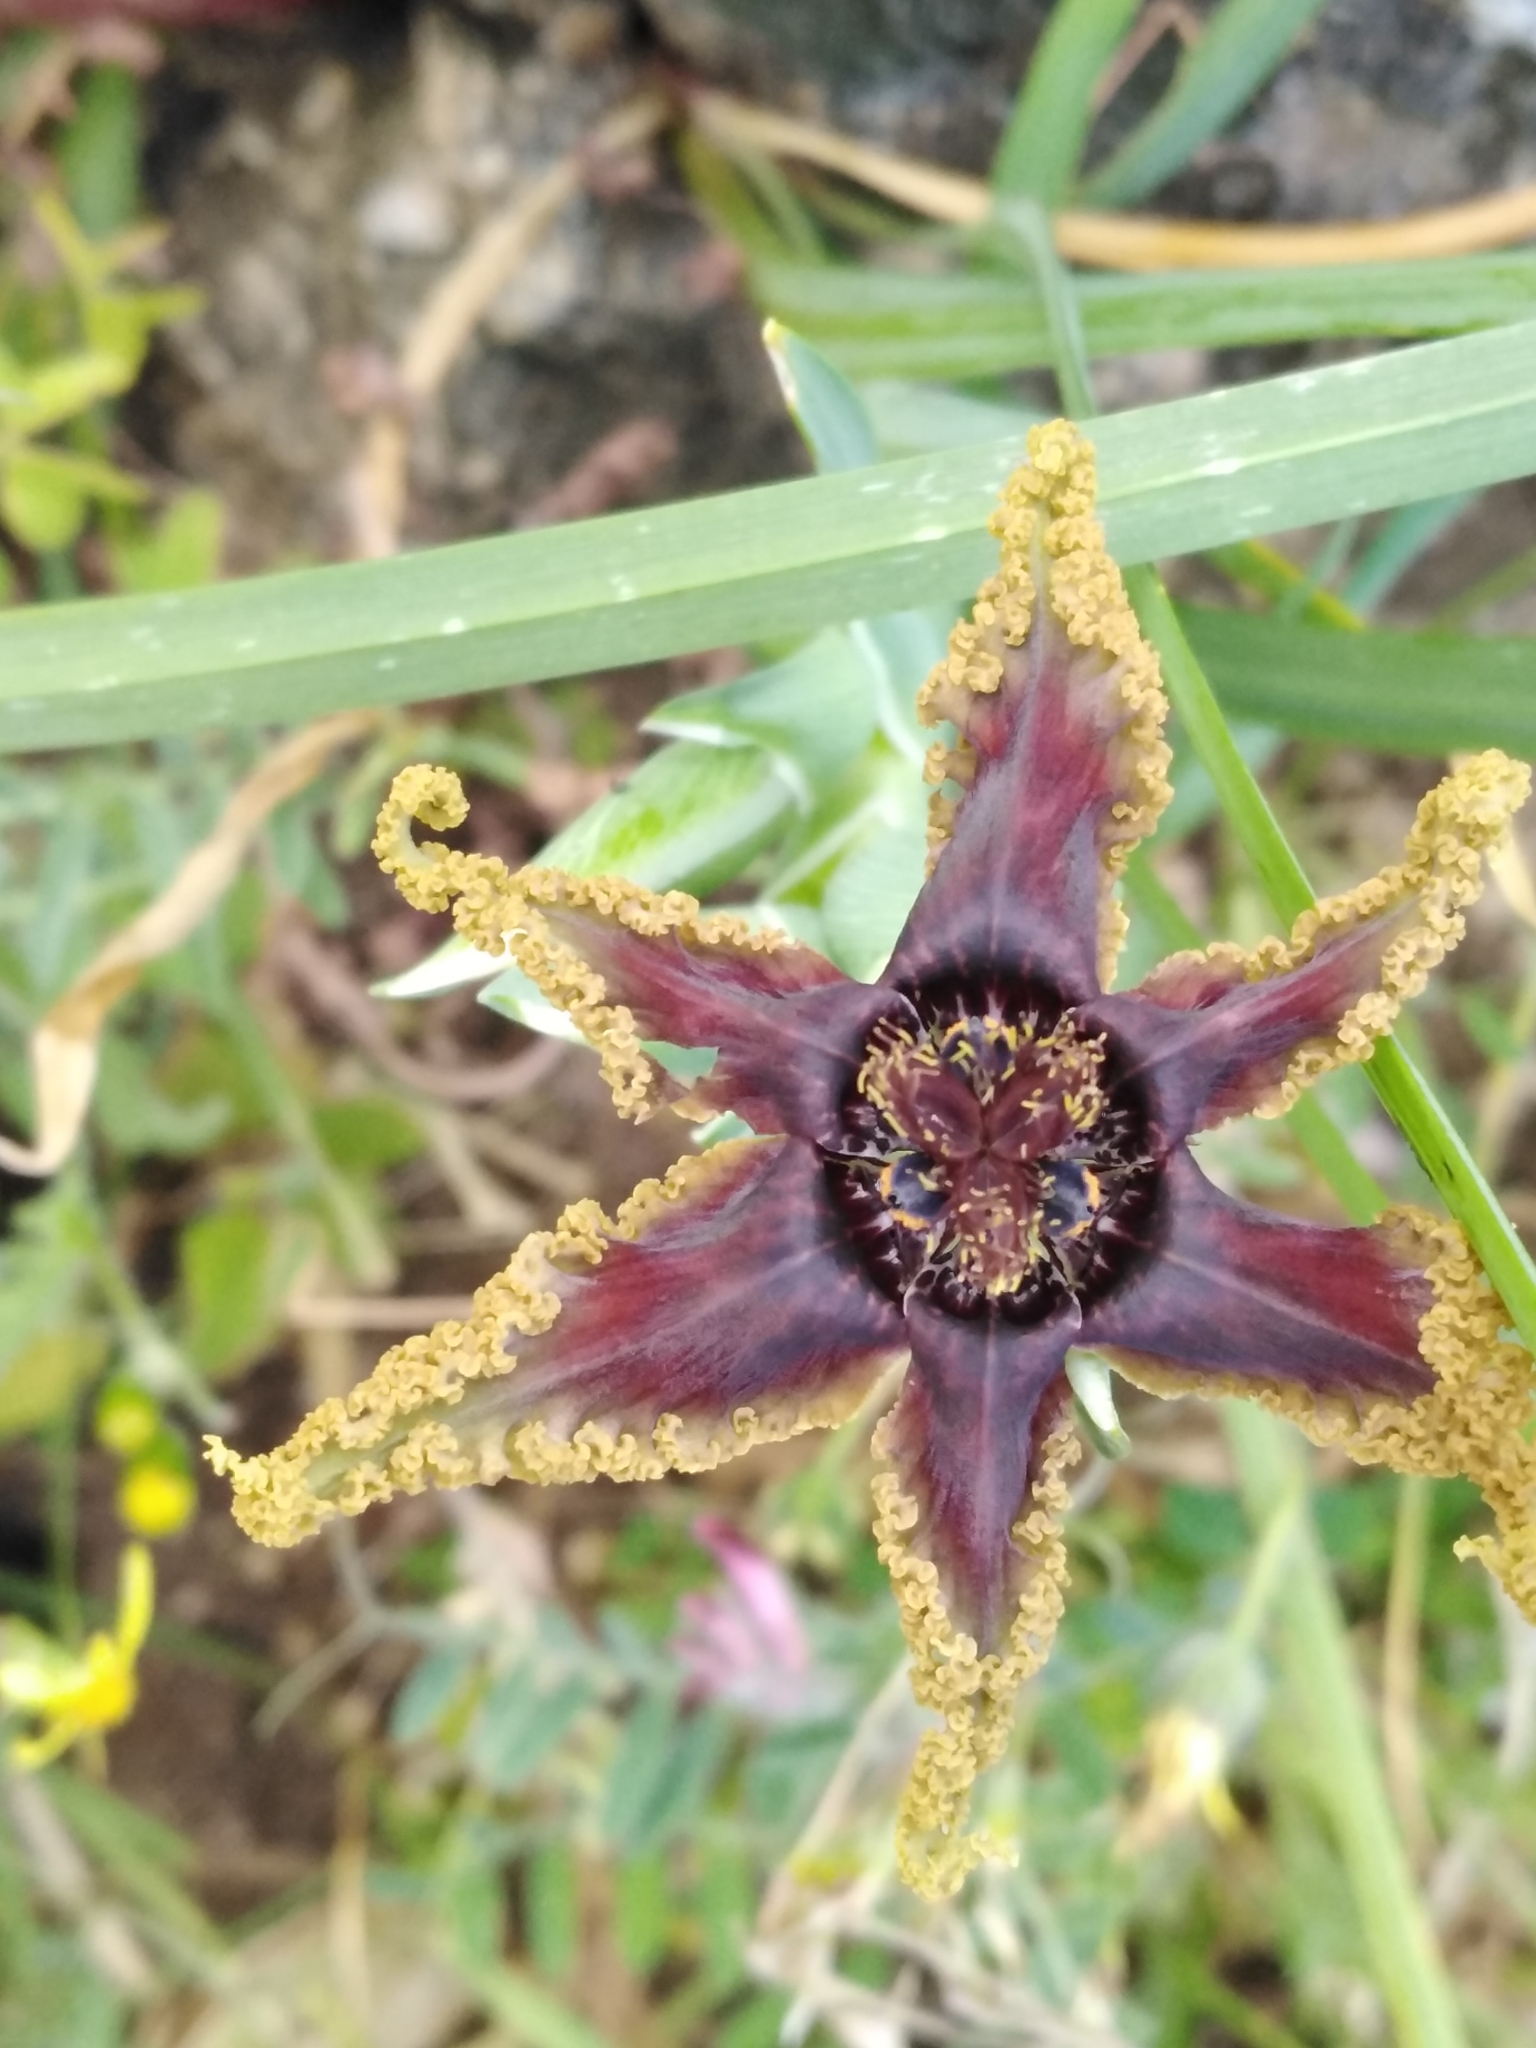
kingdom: Plantae
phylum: Tracheophyta
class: Liliopsida
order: Asparagales
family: Iridaceae
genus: Ferraria
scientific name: Ferraria crispa
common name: Black-flag
